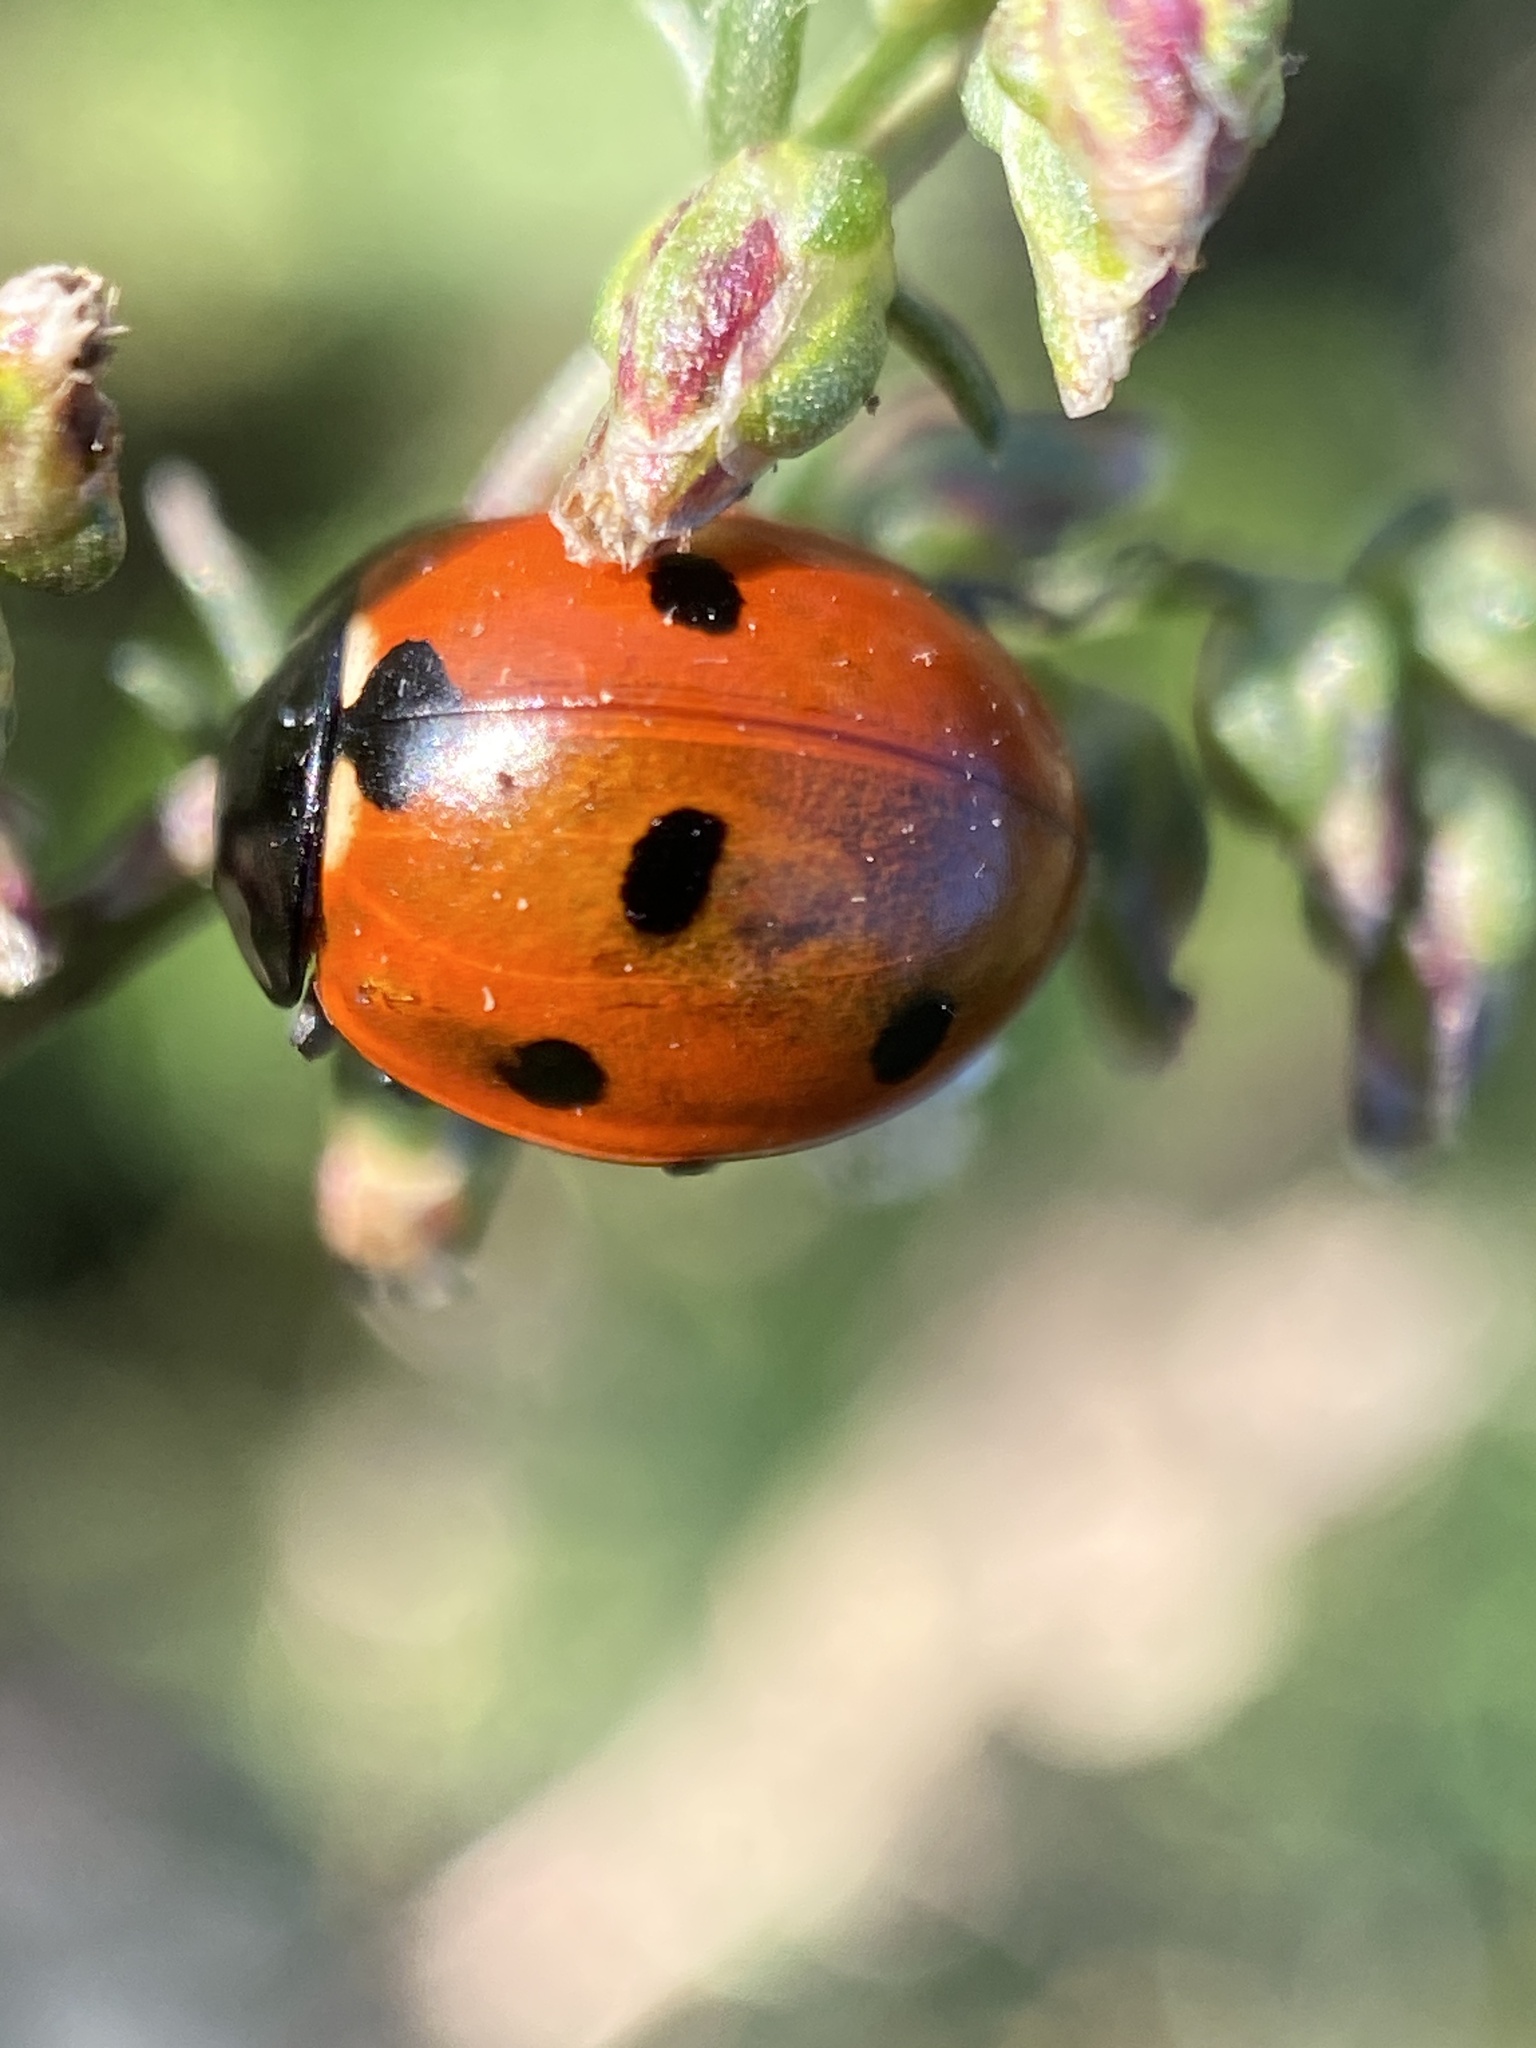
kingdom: Animalia
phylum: Arthropoda
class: Insecta
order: Coleoptera
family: Coccinellidae
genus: Coccinella
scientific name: Coccinella septempunctata
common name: Sevenspotted lady beetle
